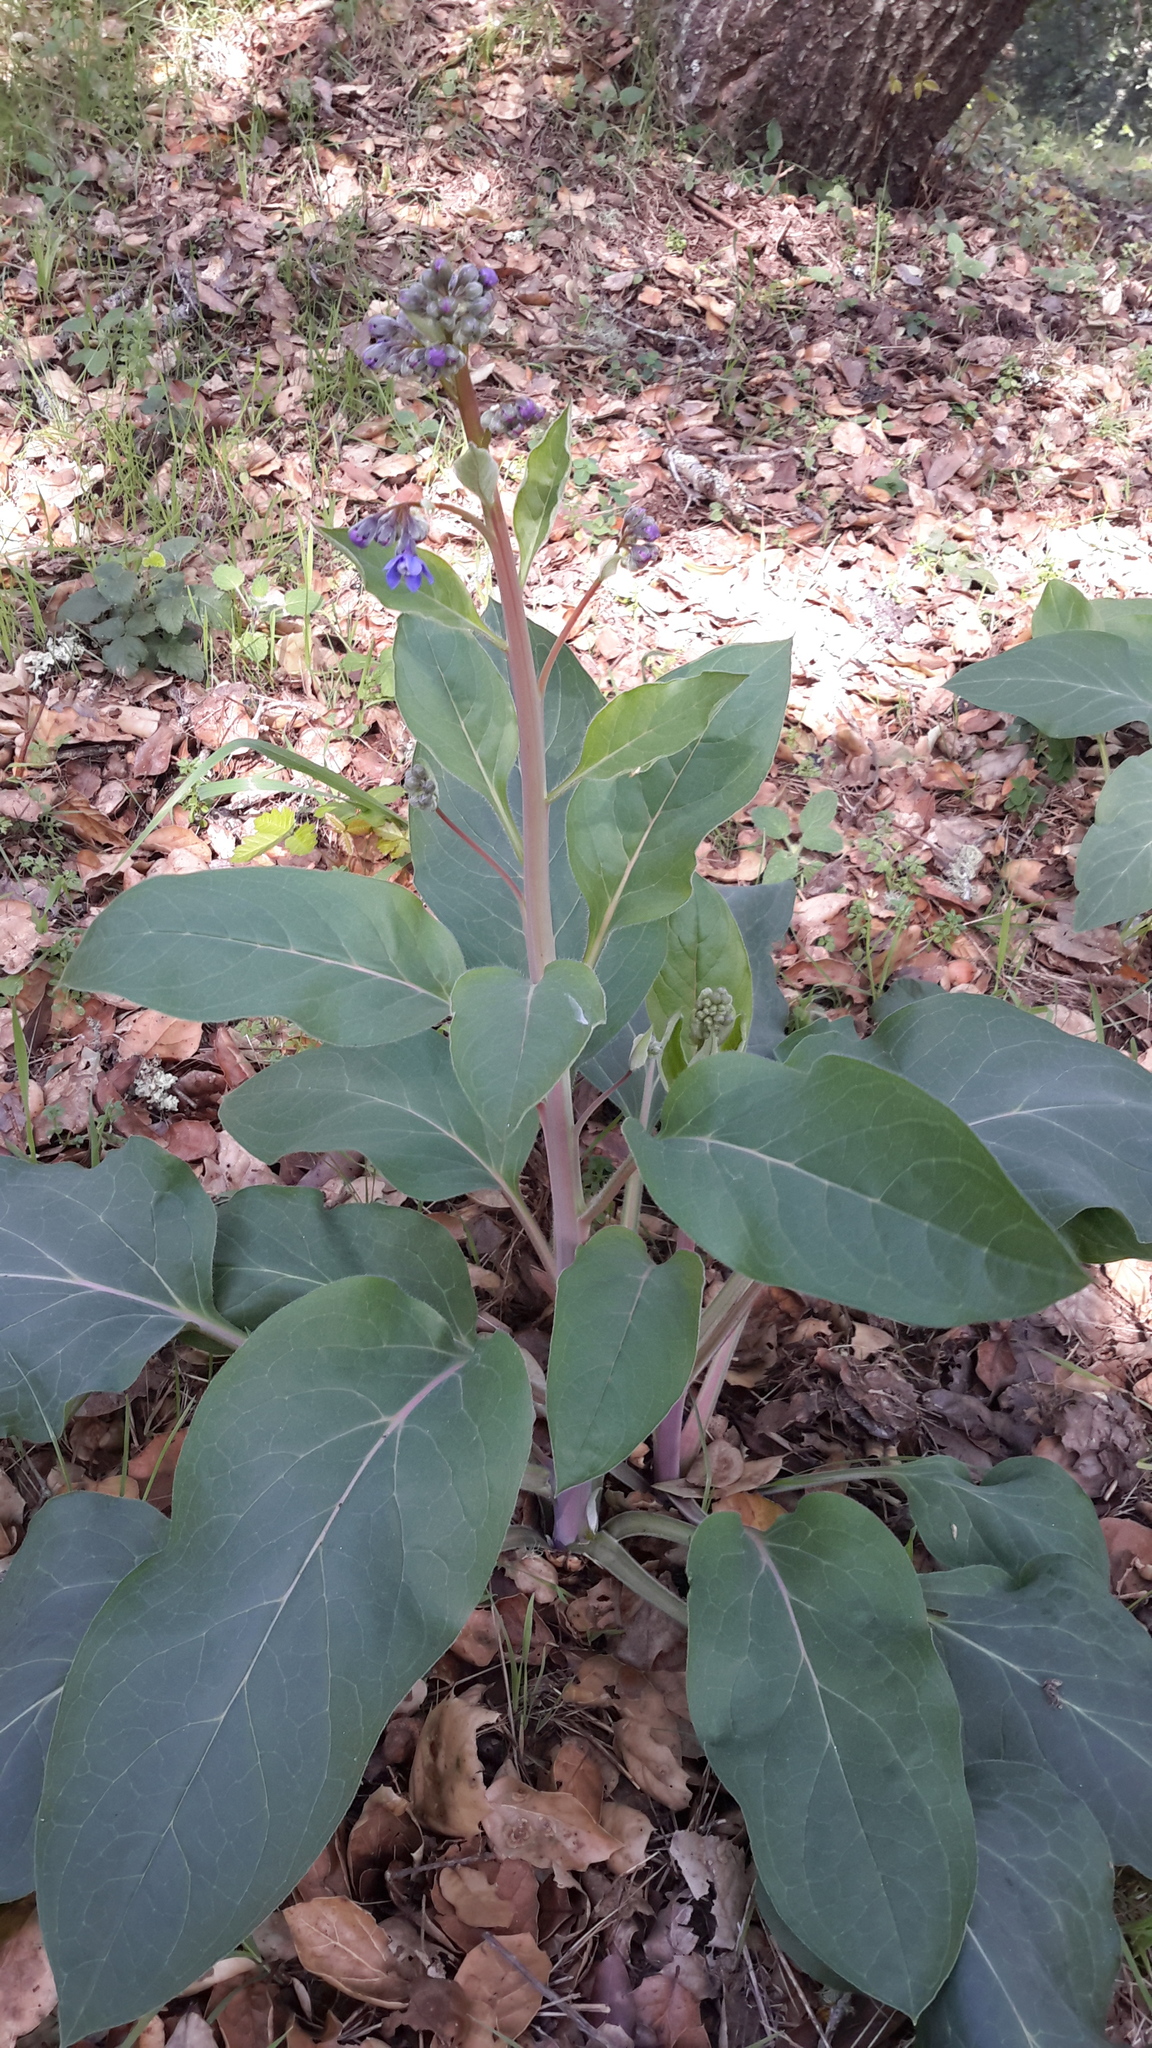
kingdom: Plantae
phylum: Tracheophyta
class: Magnoliopsida
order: Boraginales
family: Boraginaceae
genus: Adelinia
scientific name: Adelinia grande
